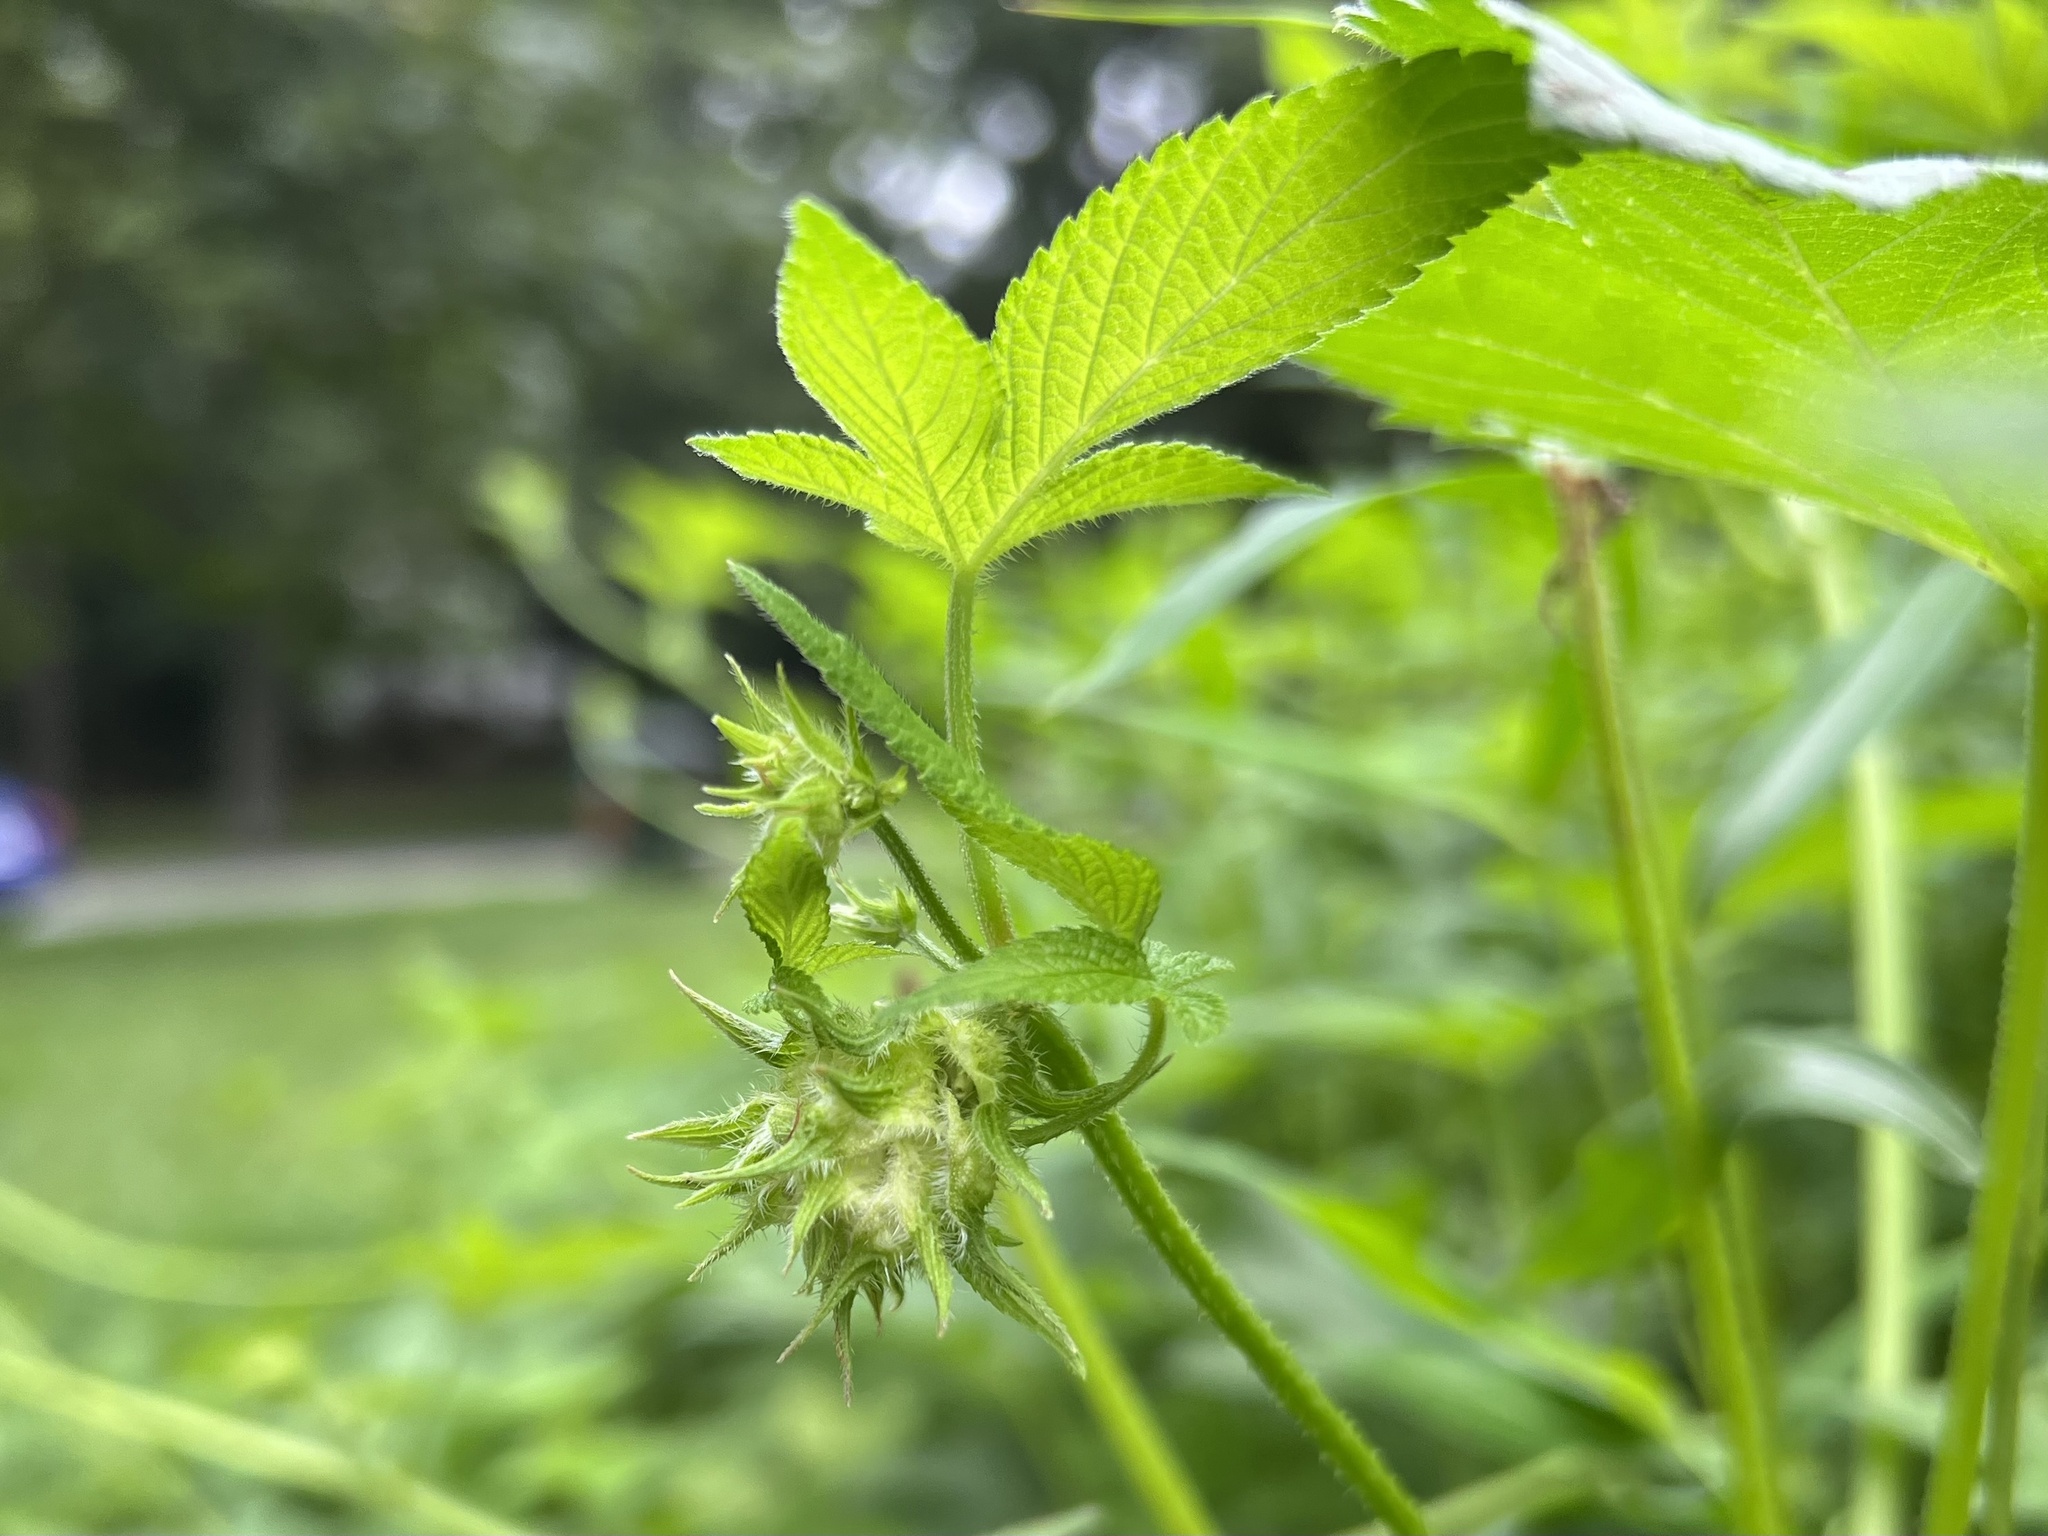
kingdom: Plantae
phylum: Tracheophyta
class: Magnoliopsida
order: Rosales
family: Cannabaceae
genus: Humulus
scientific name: Humulus scandens
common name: Japanese hop
